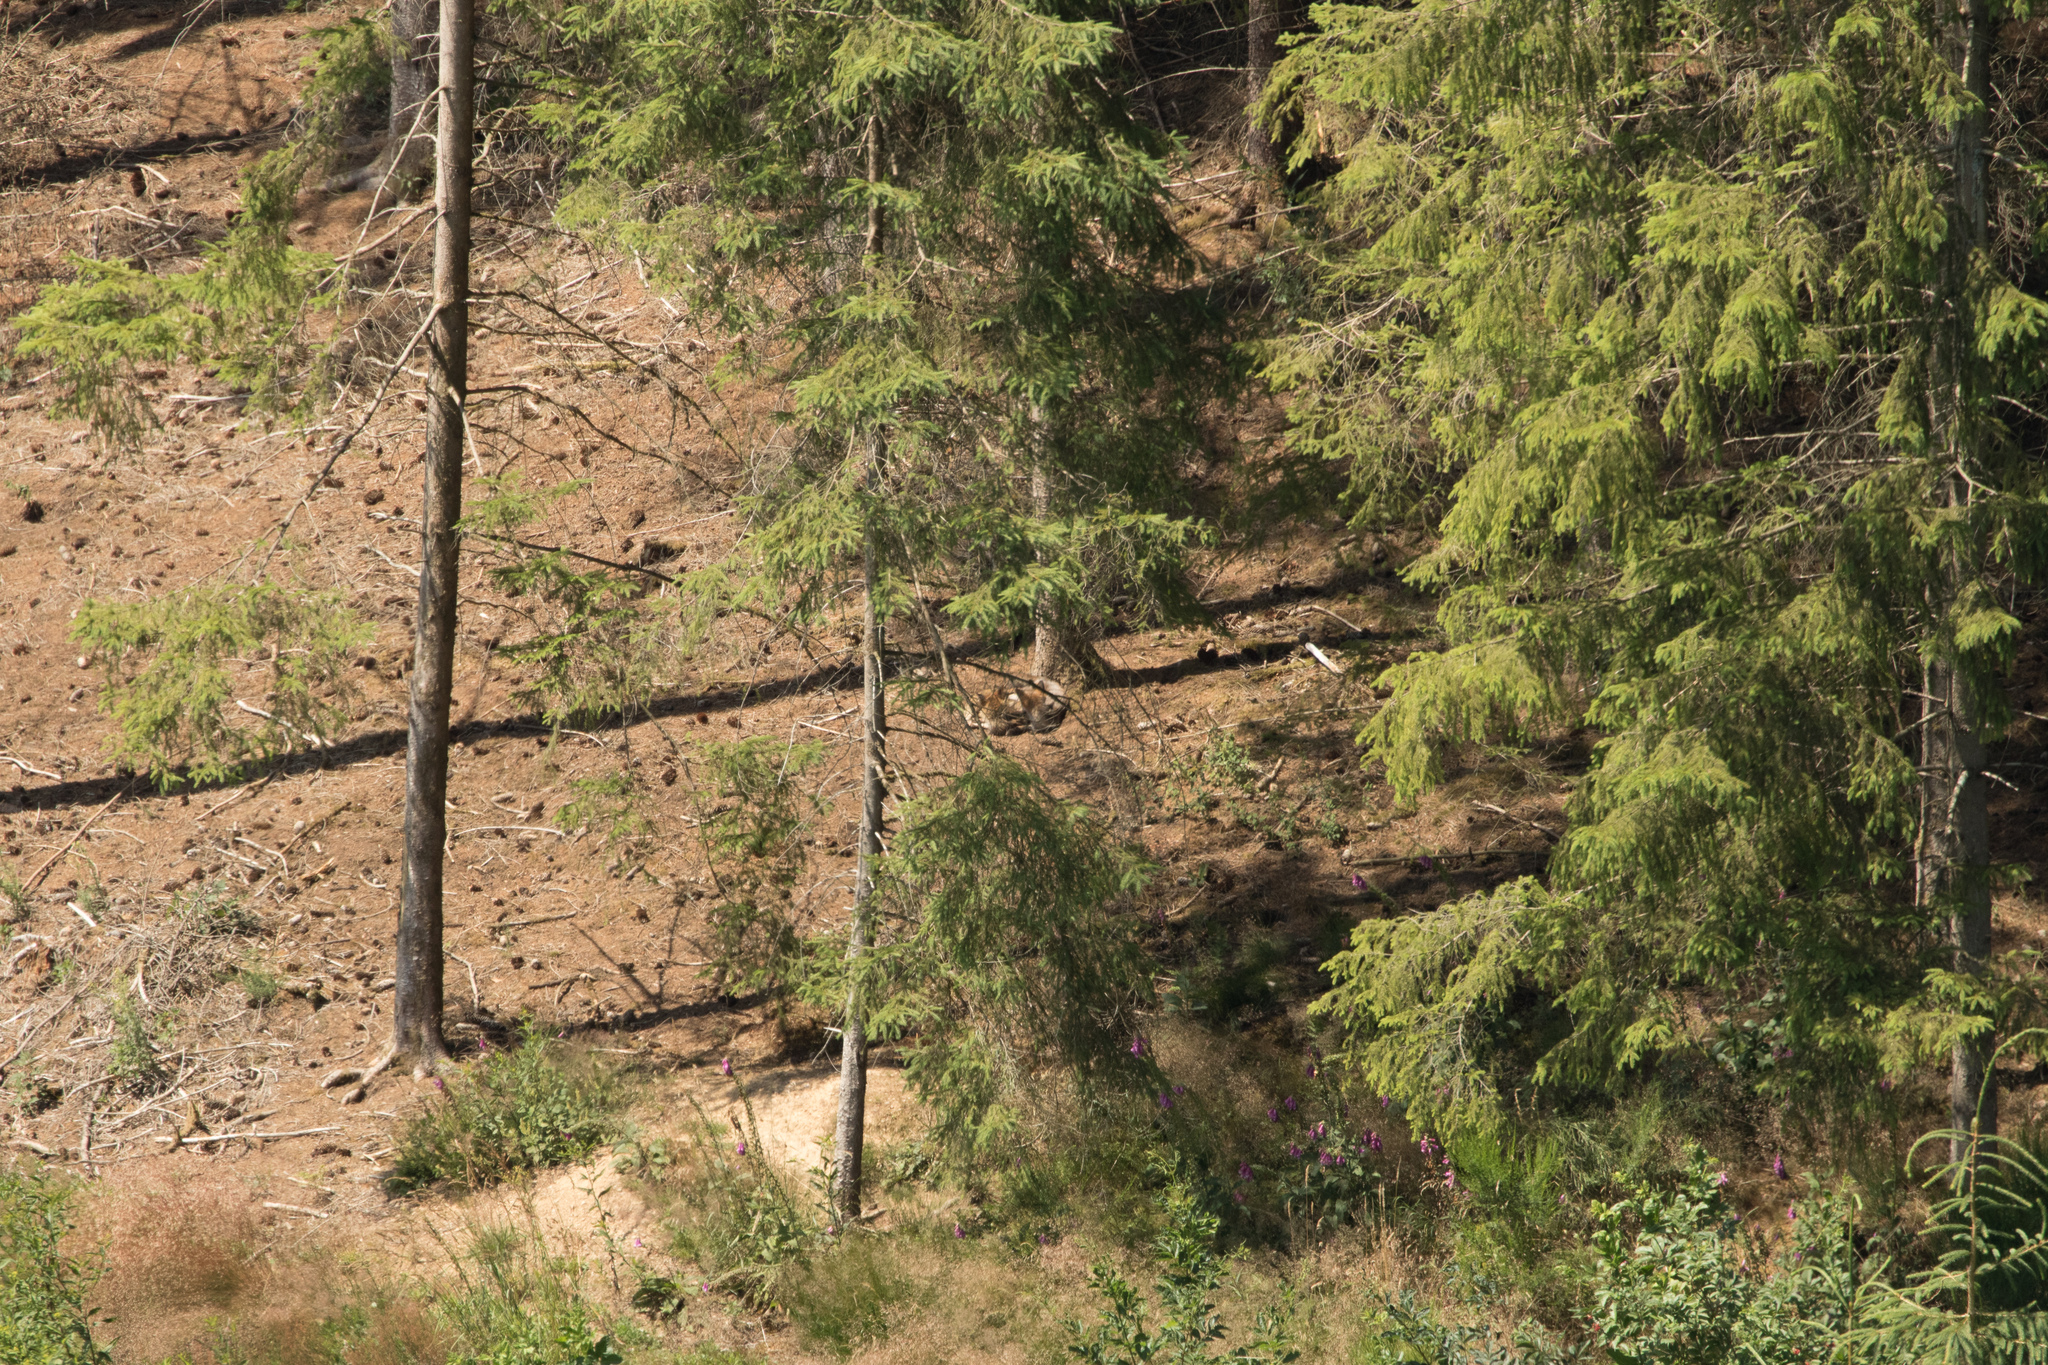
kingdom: Animalia
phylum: Chordata
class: Mammalia
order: Carnivora
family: Canidae
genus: Vulpes
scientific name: Vulpes vulpes
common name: Red fox
